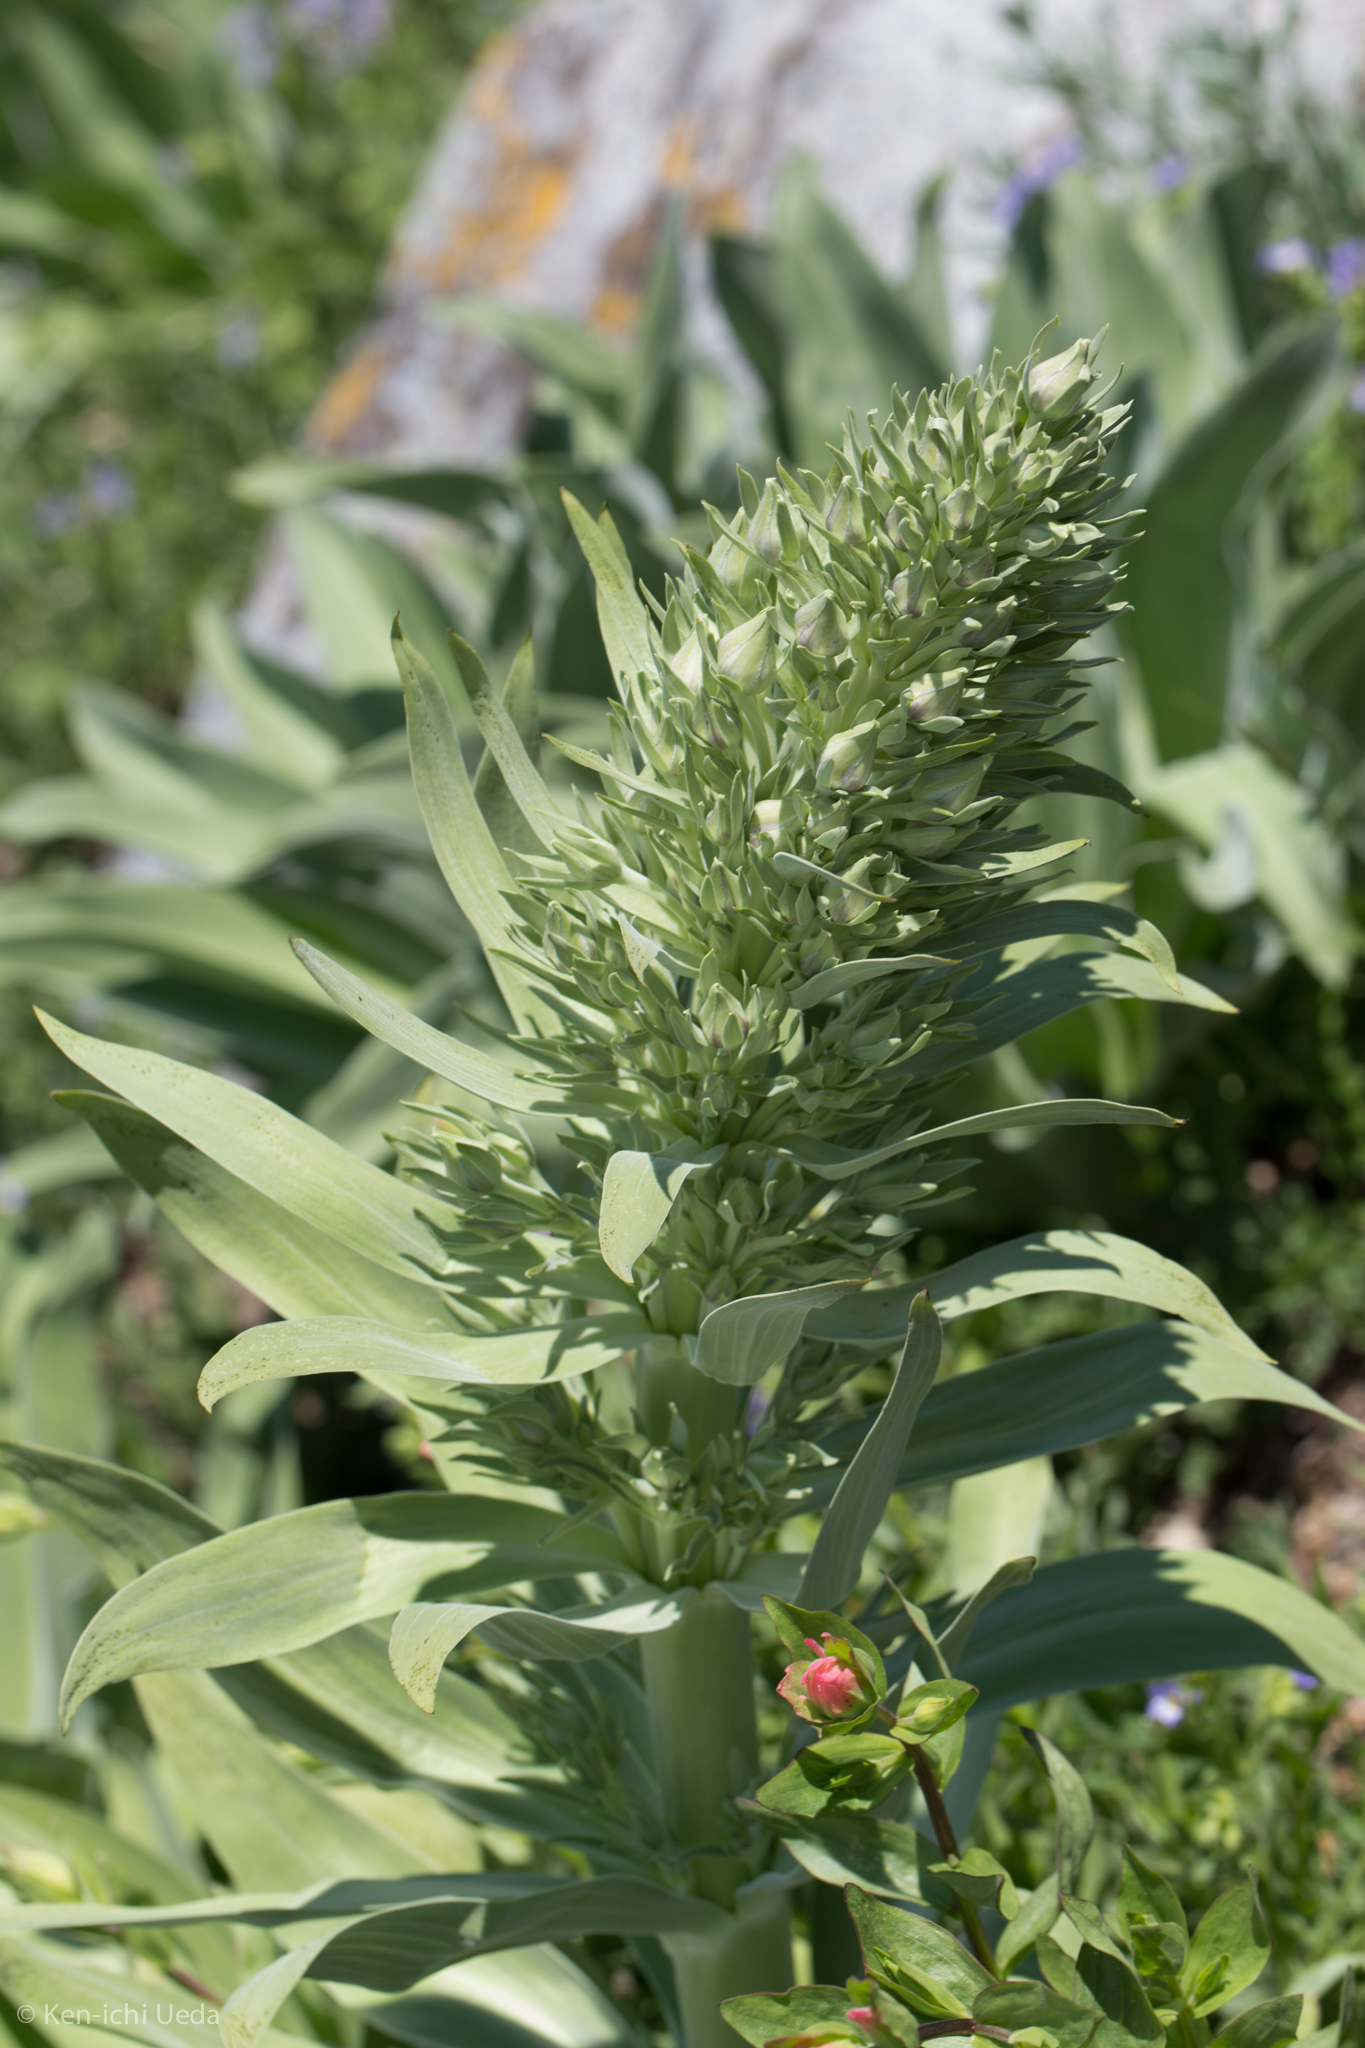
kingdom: Plantae
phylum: Tracheophyta
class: Magnoliopsida
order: Gentianales
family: Gentianaceae
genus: Frasera
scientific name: Frasera speciosa
